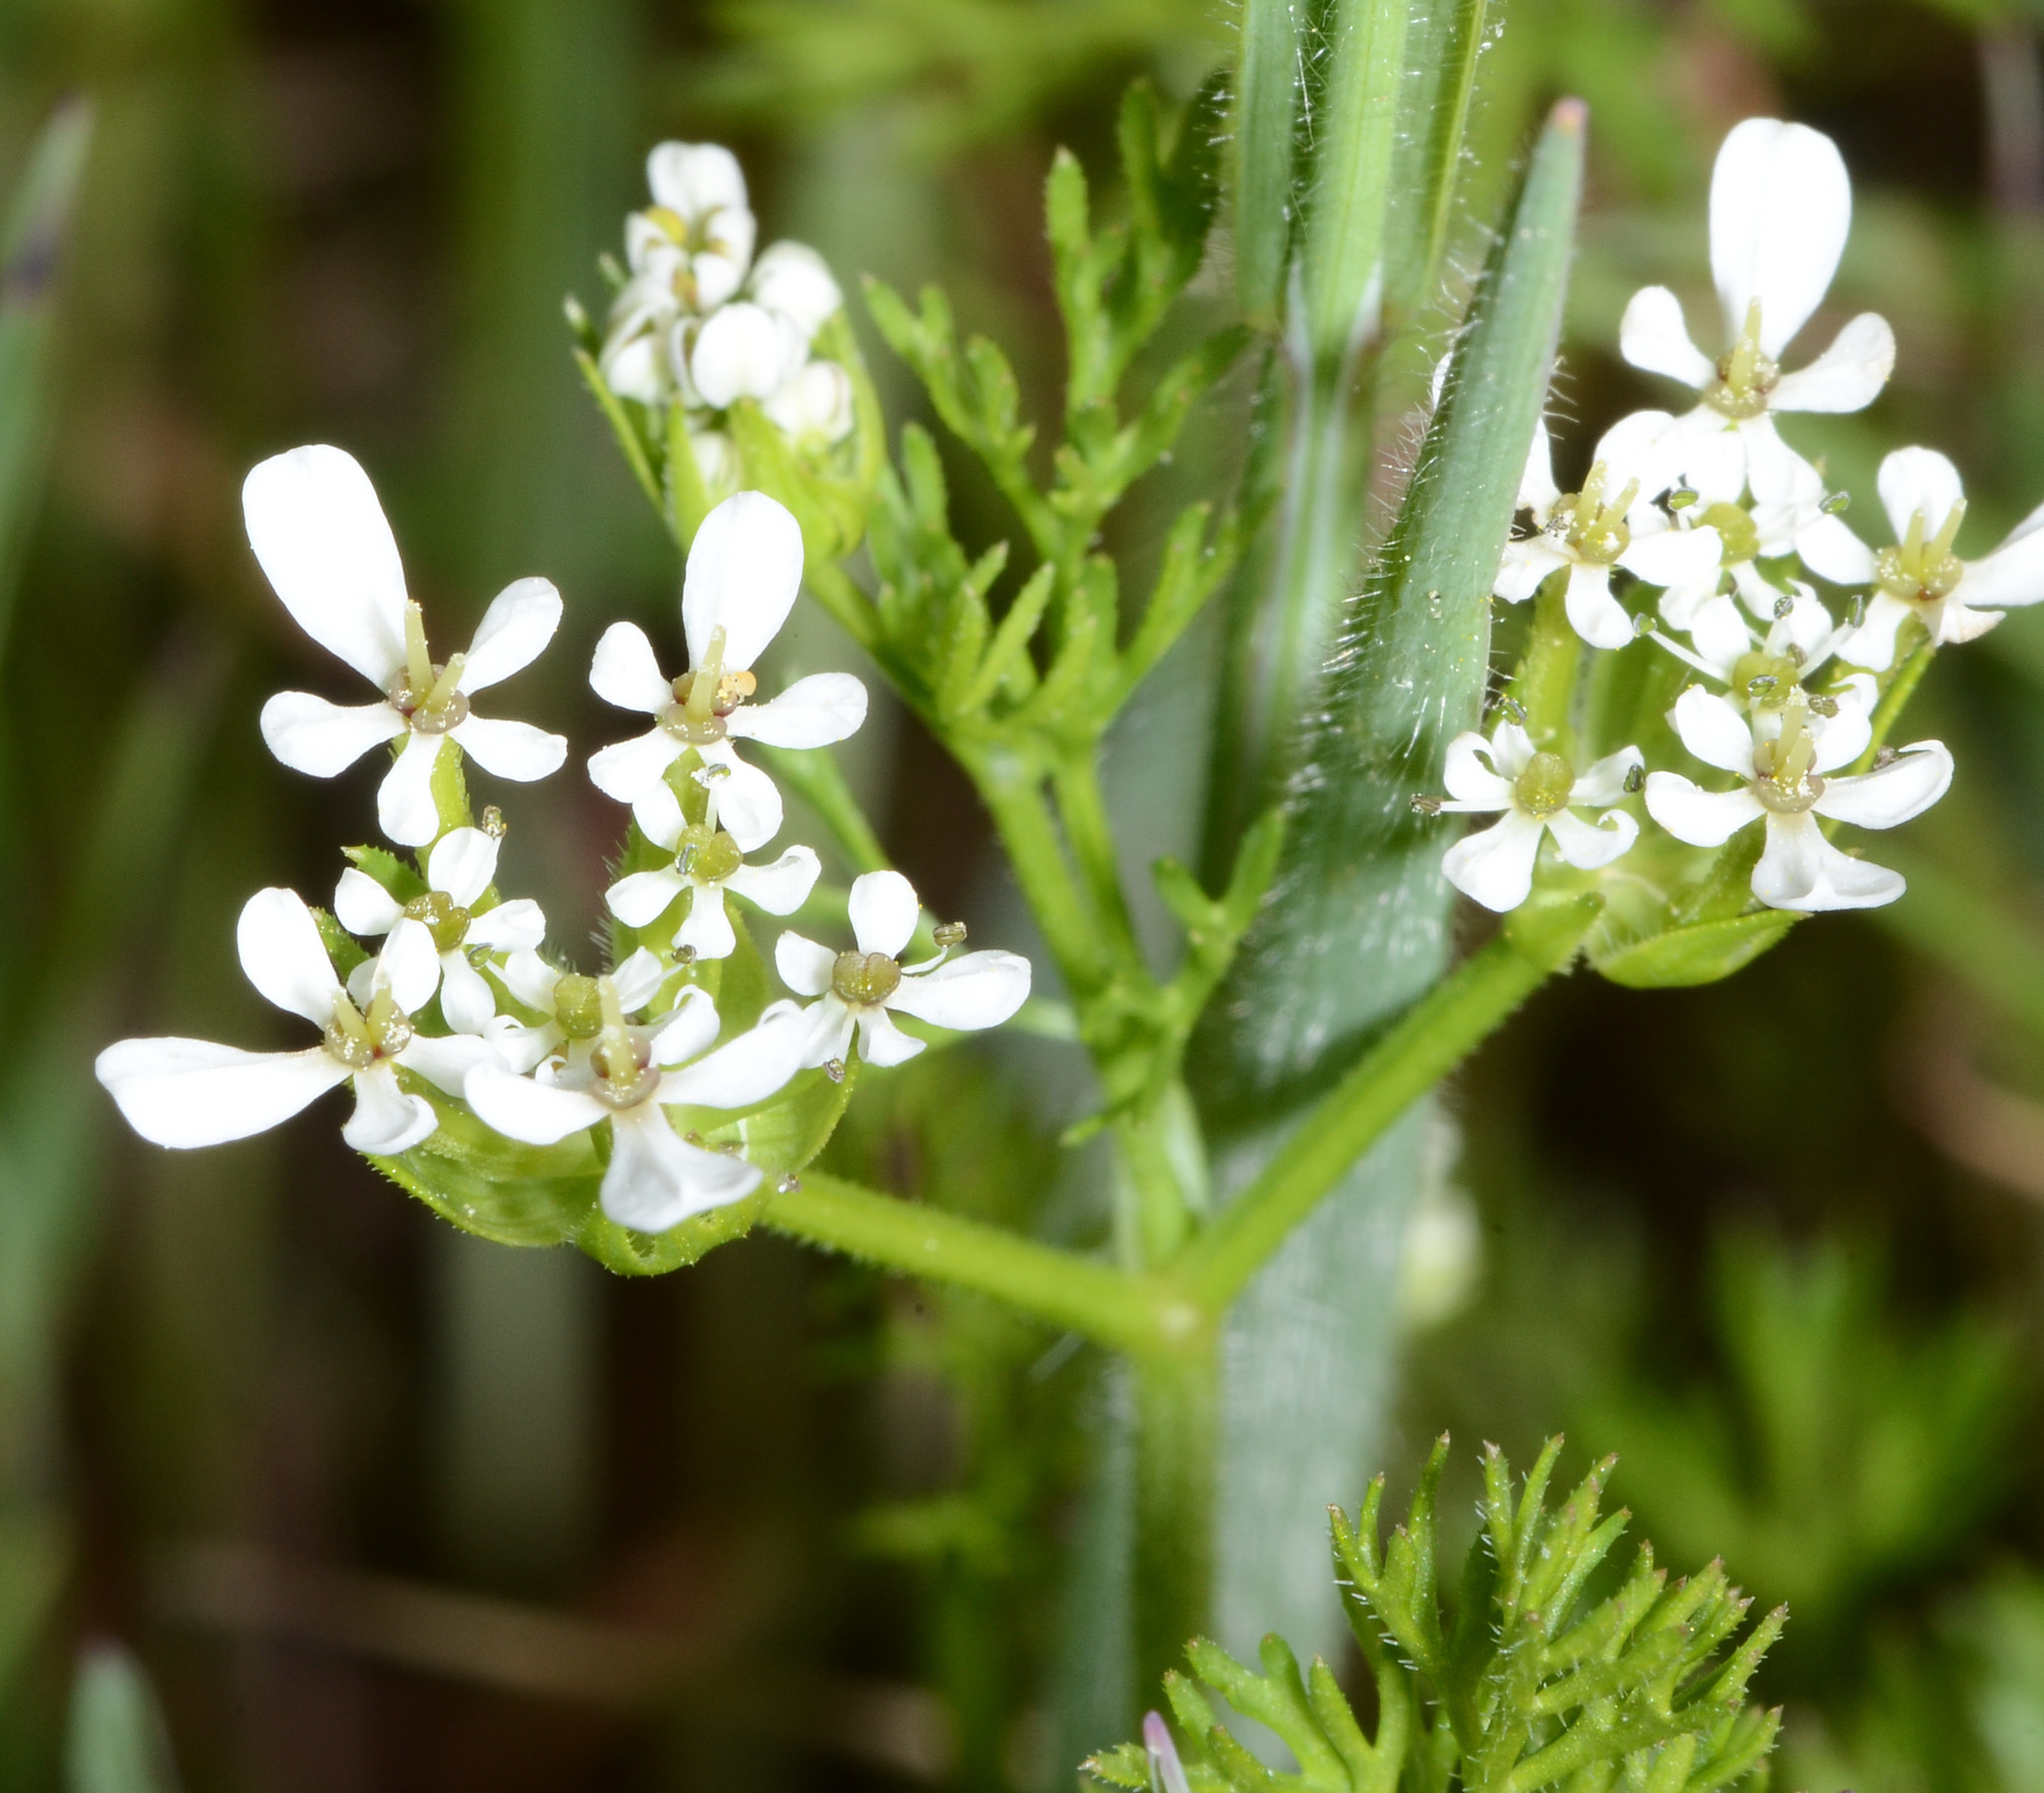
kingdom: Plantae
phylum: Tracheophyta
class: Magnoliopsida
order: Apiales
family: Apiaceae
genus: Scandix
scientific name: Scandix pecten-veneris
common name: Shepherd's-needle
